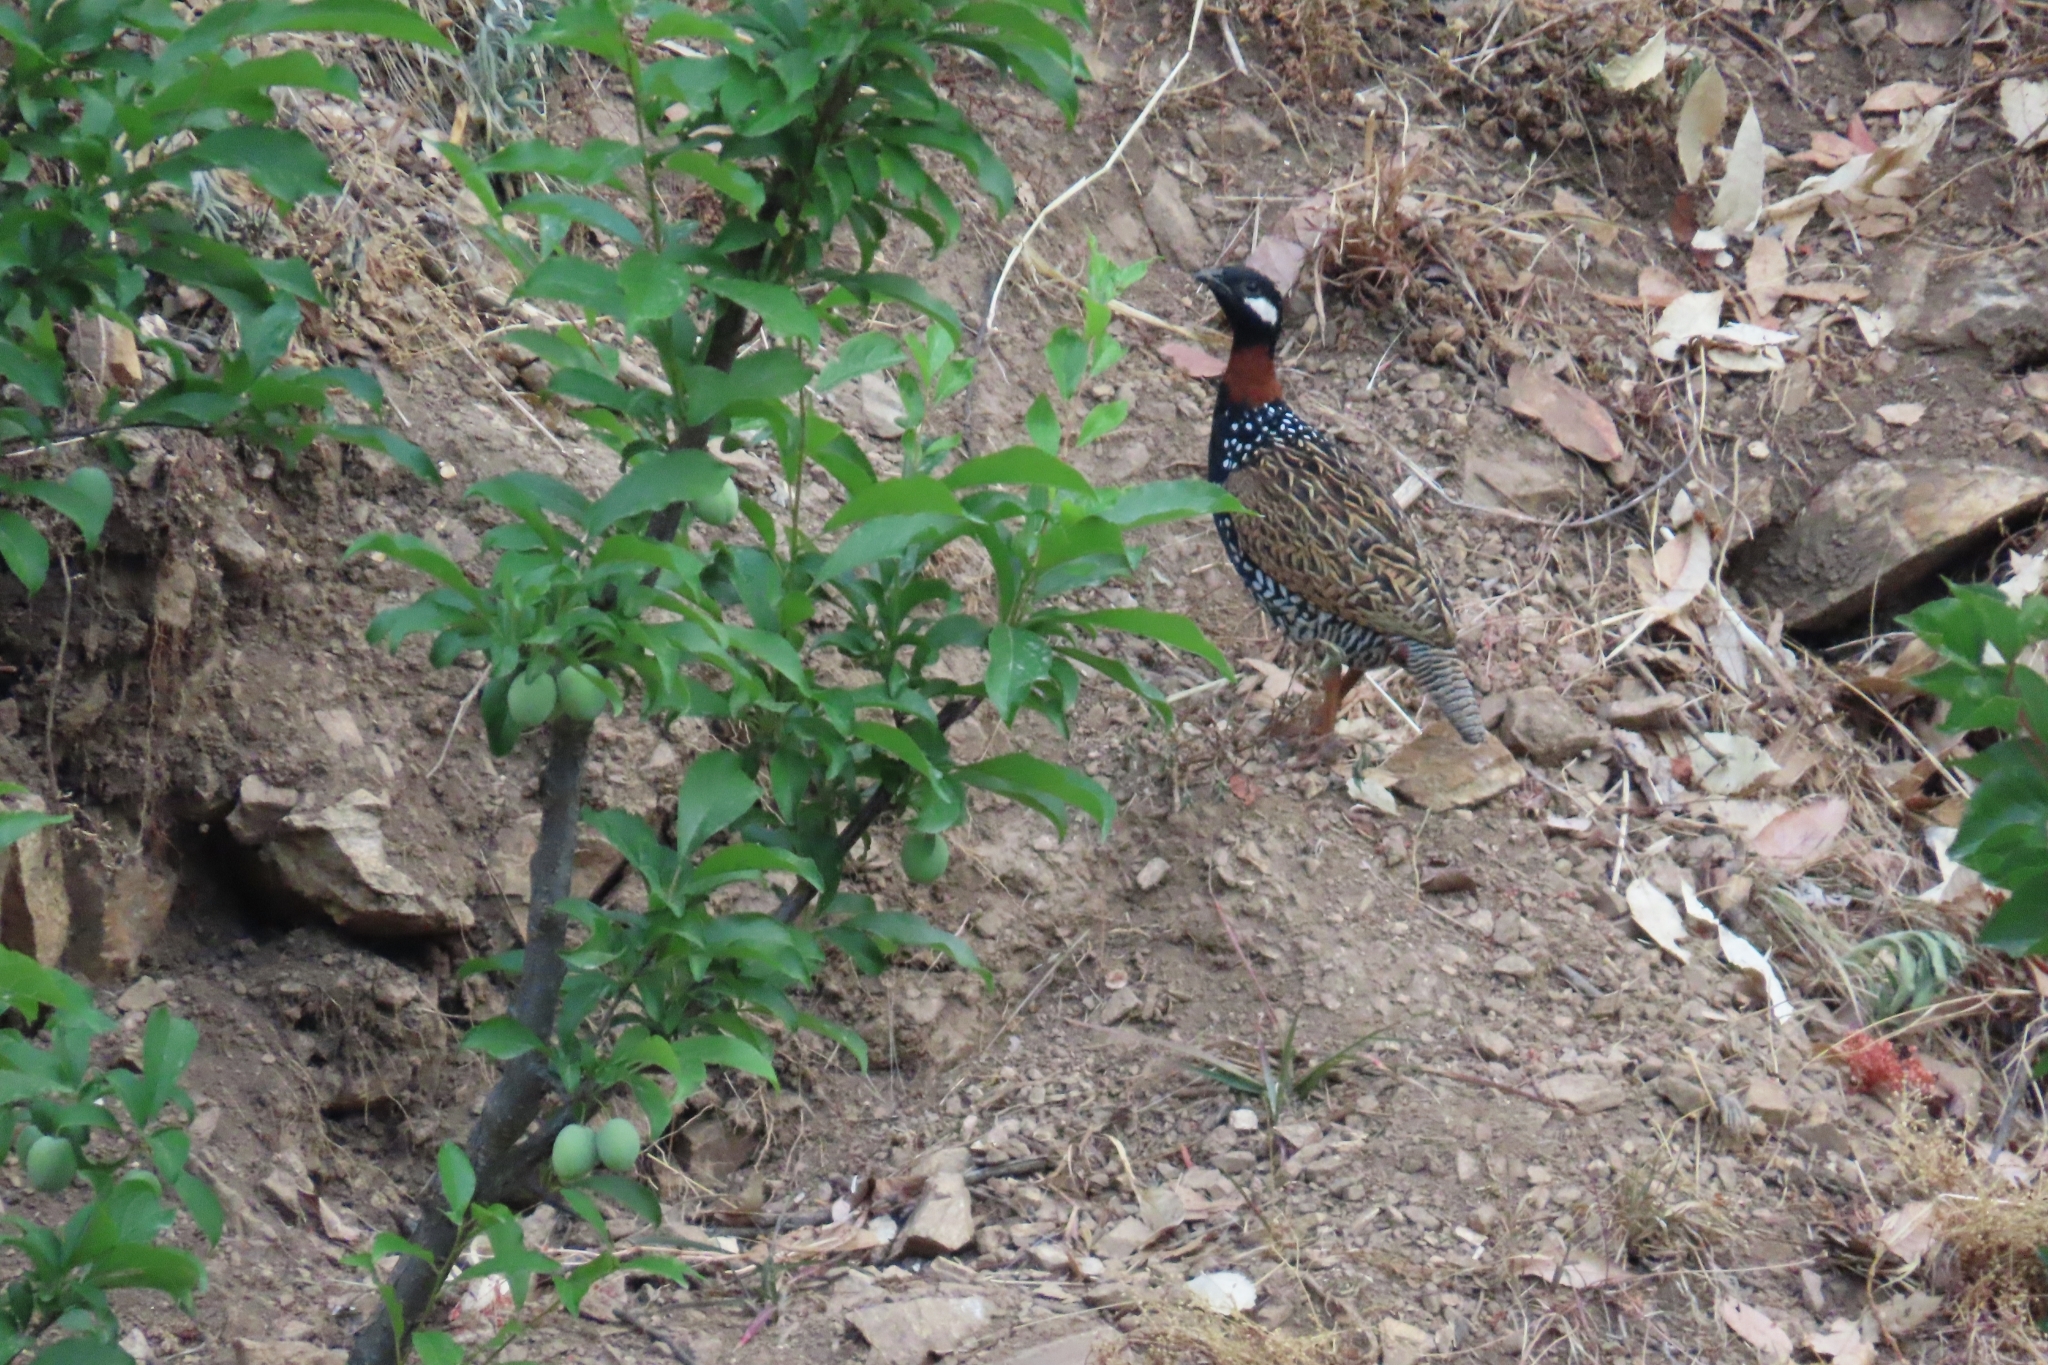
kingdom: Animalia
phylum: Chordata
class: Aves
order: Galliformes
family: Phasianidae
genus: Francolinus
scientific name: Francolinus francolinus
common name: Black francolin
